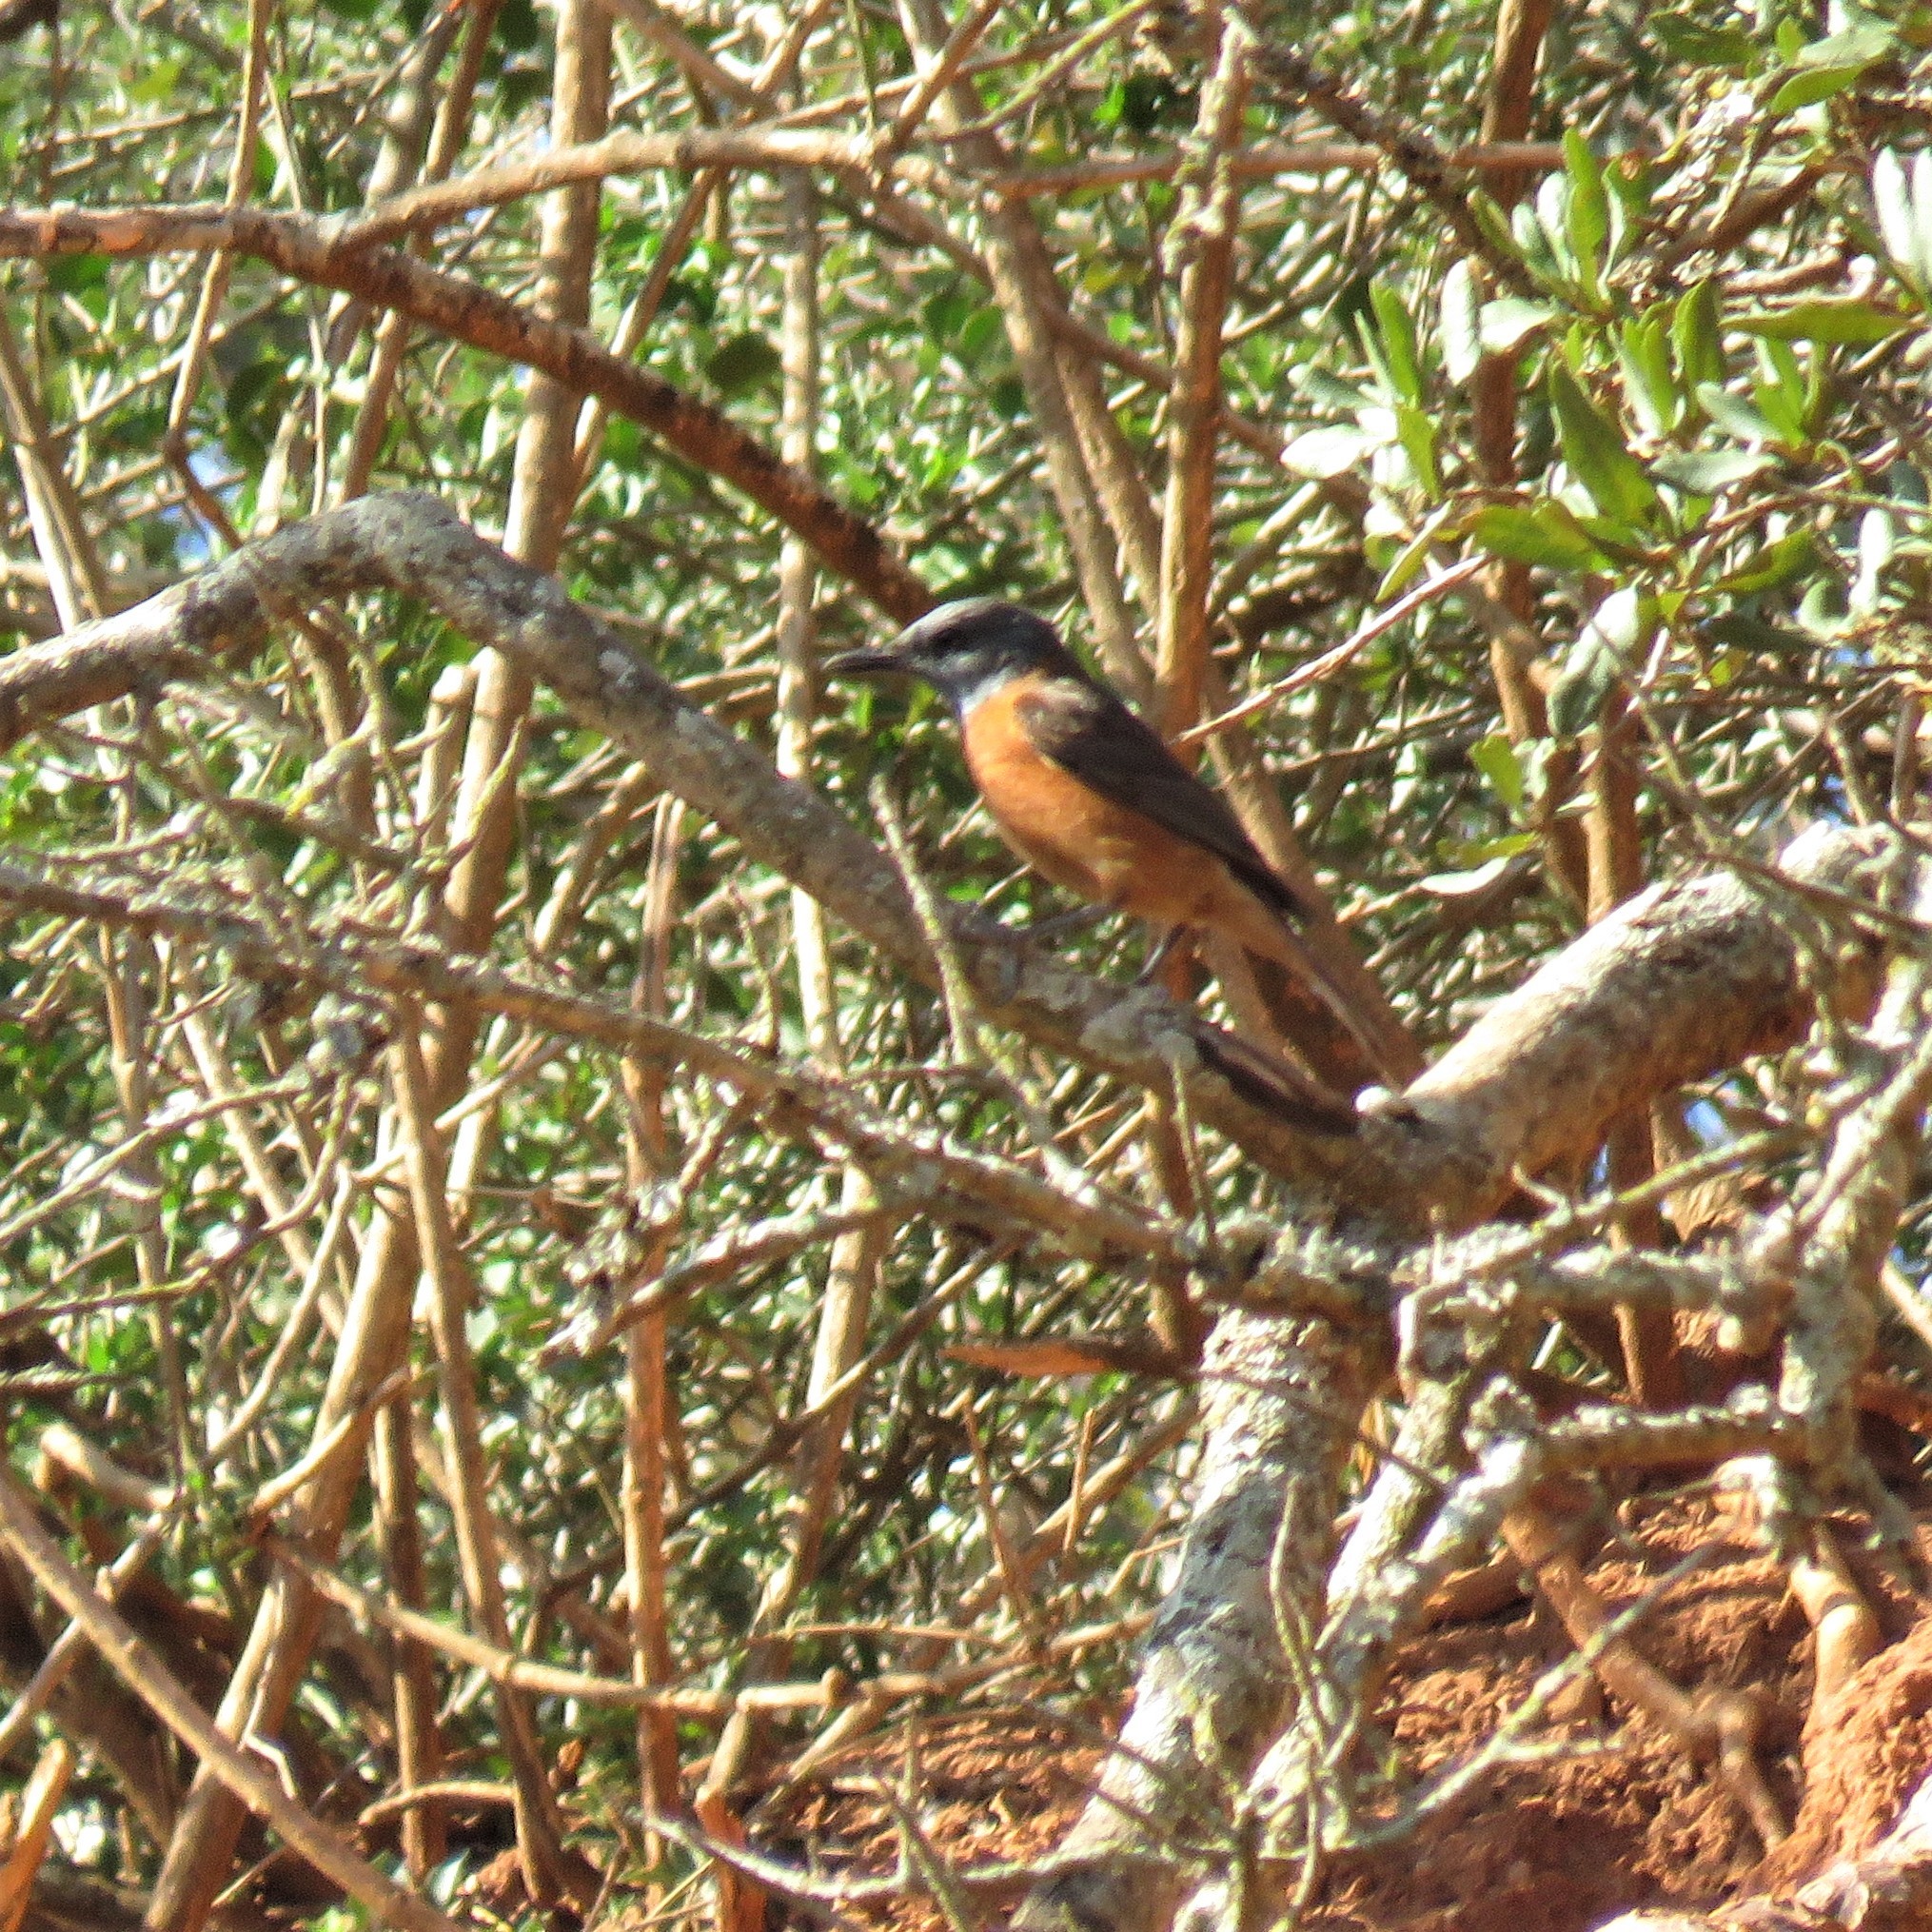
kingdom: Animalia
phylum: Chordata
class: Aves
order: Passeriformes
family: Muscicapidae
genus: Monticola
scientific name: Monticola rupestris
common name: Cape rock thrush
